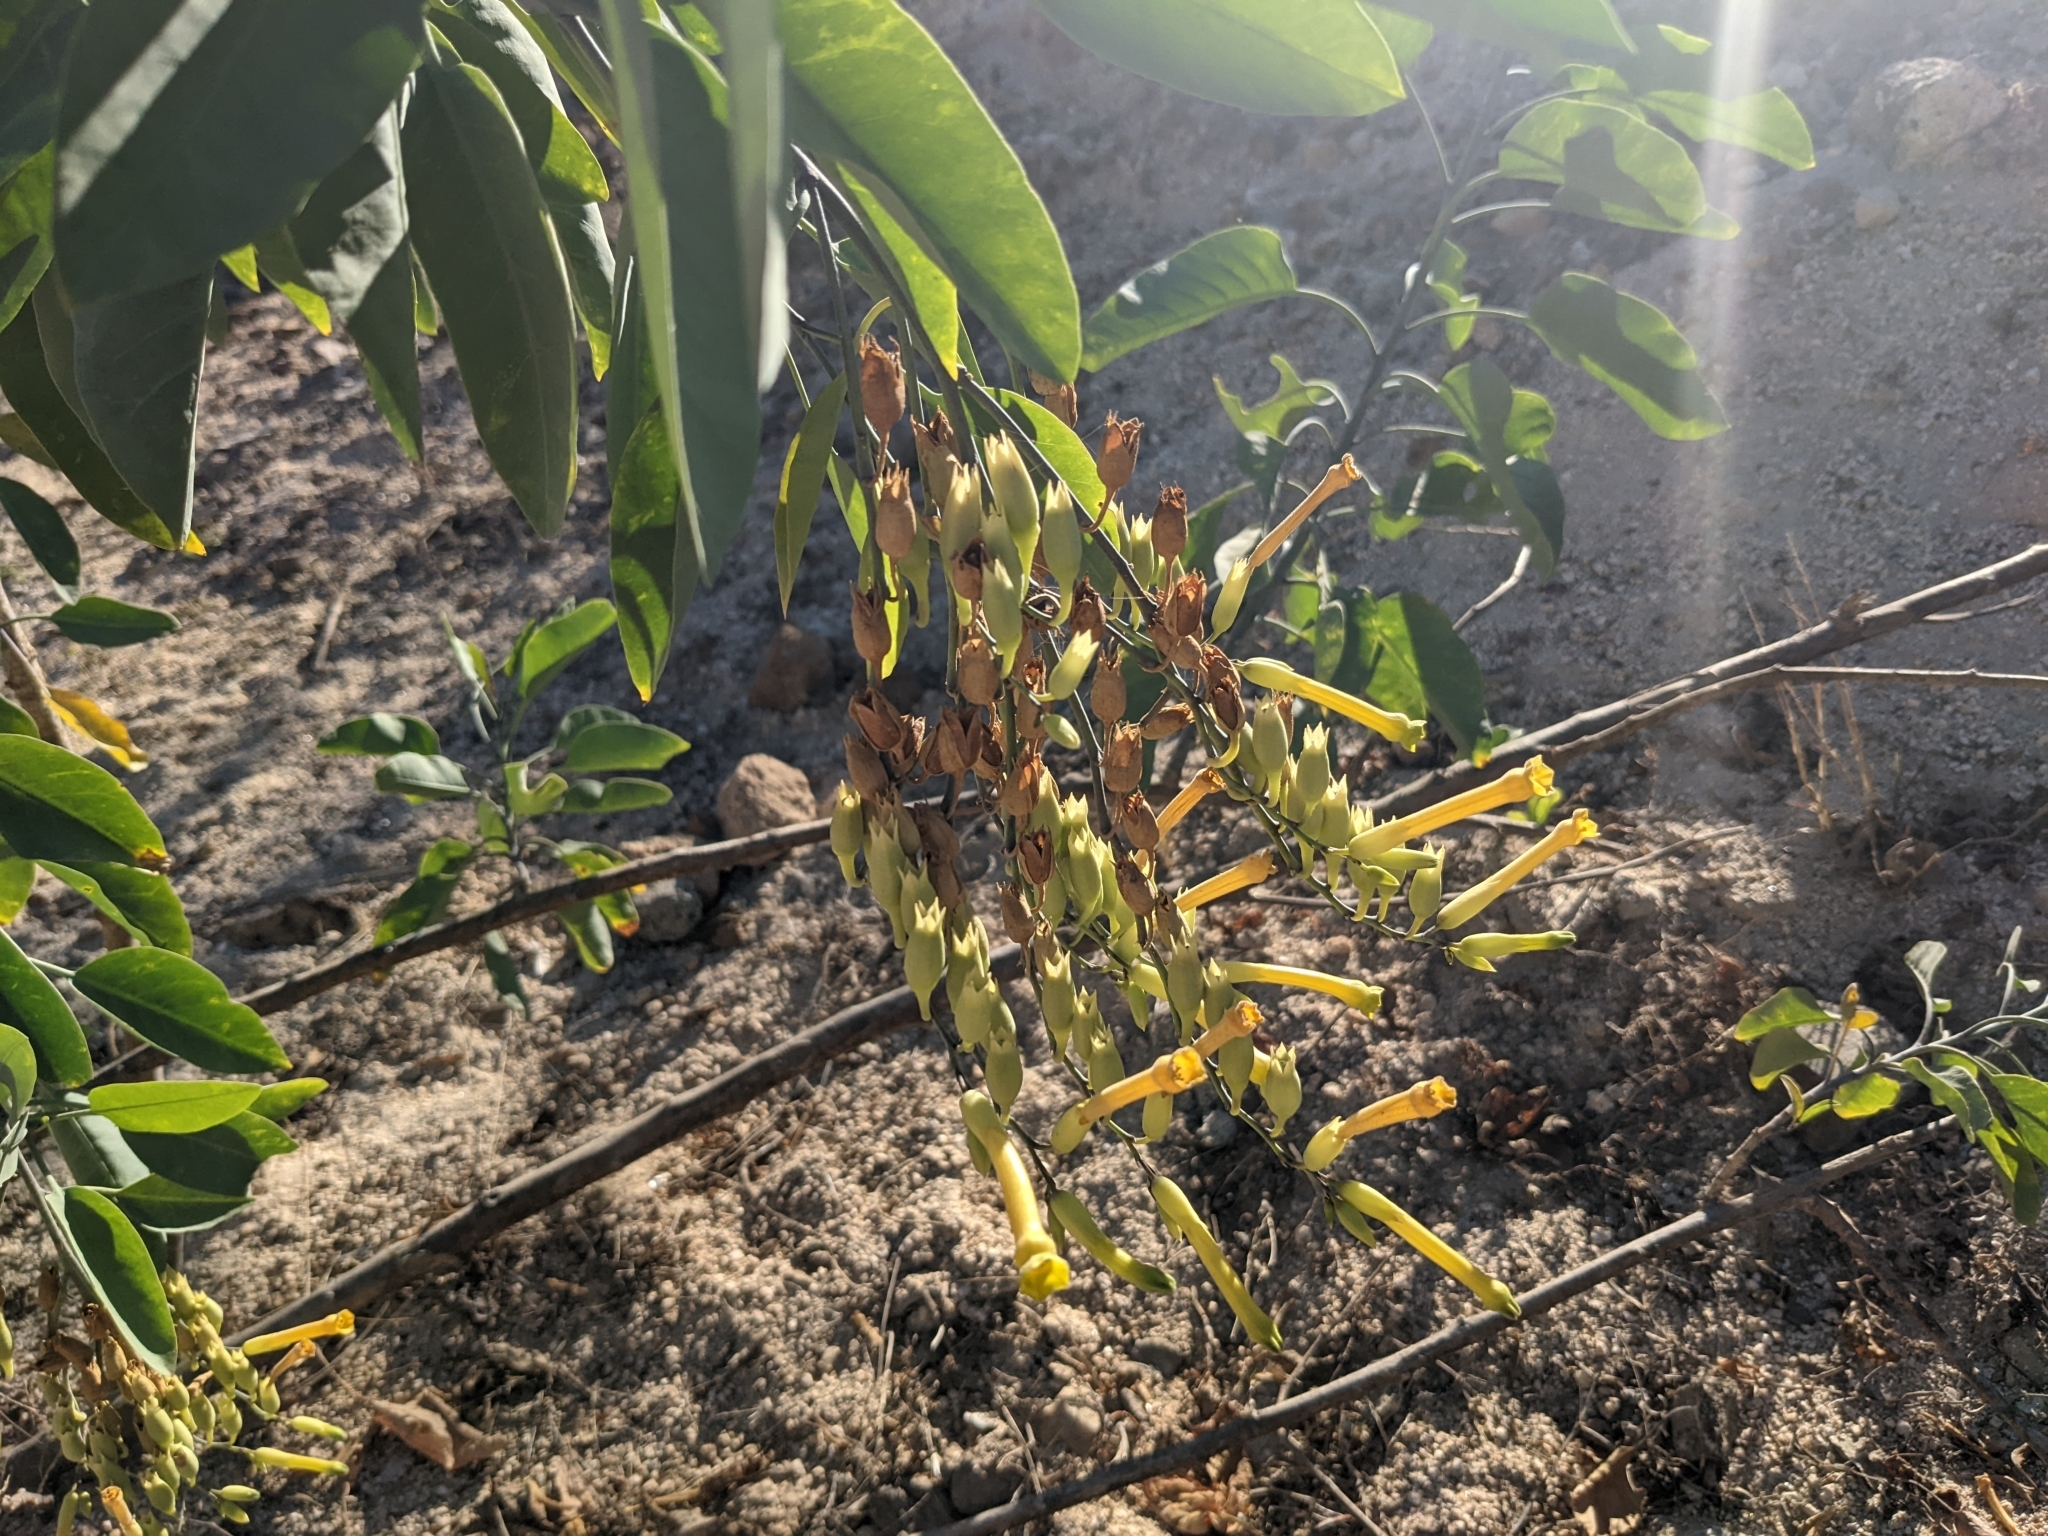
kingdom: Plantae
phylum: Tracheophyta
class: Magnoliopsida
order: Solanales
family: Solanaceae
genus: Nicotiana
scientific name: Nicotiana glauca
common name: Tree tobacco
